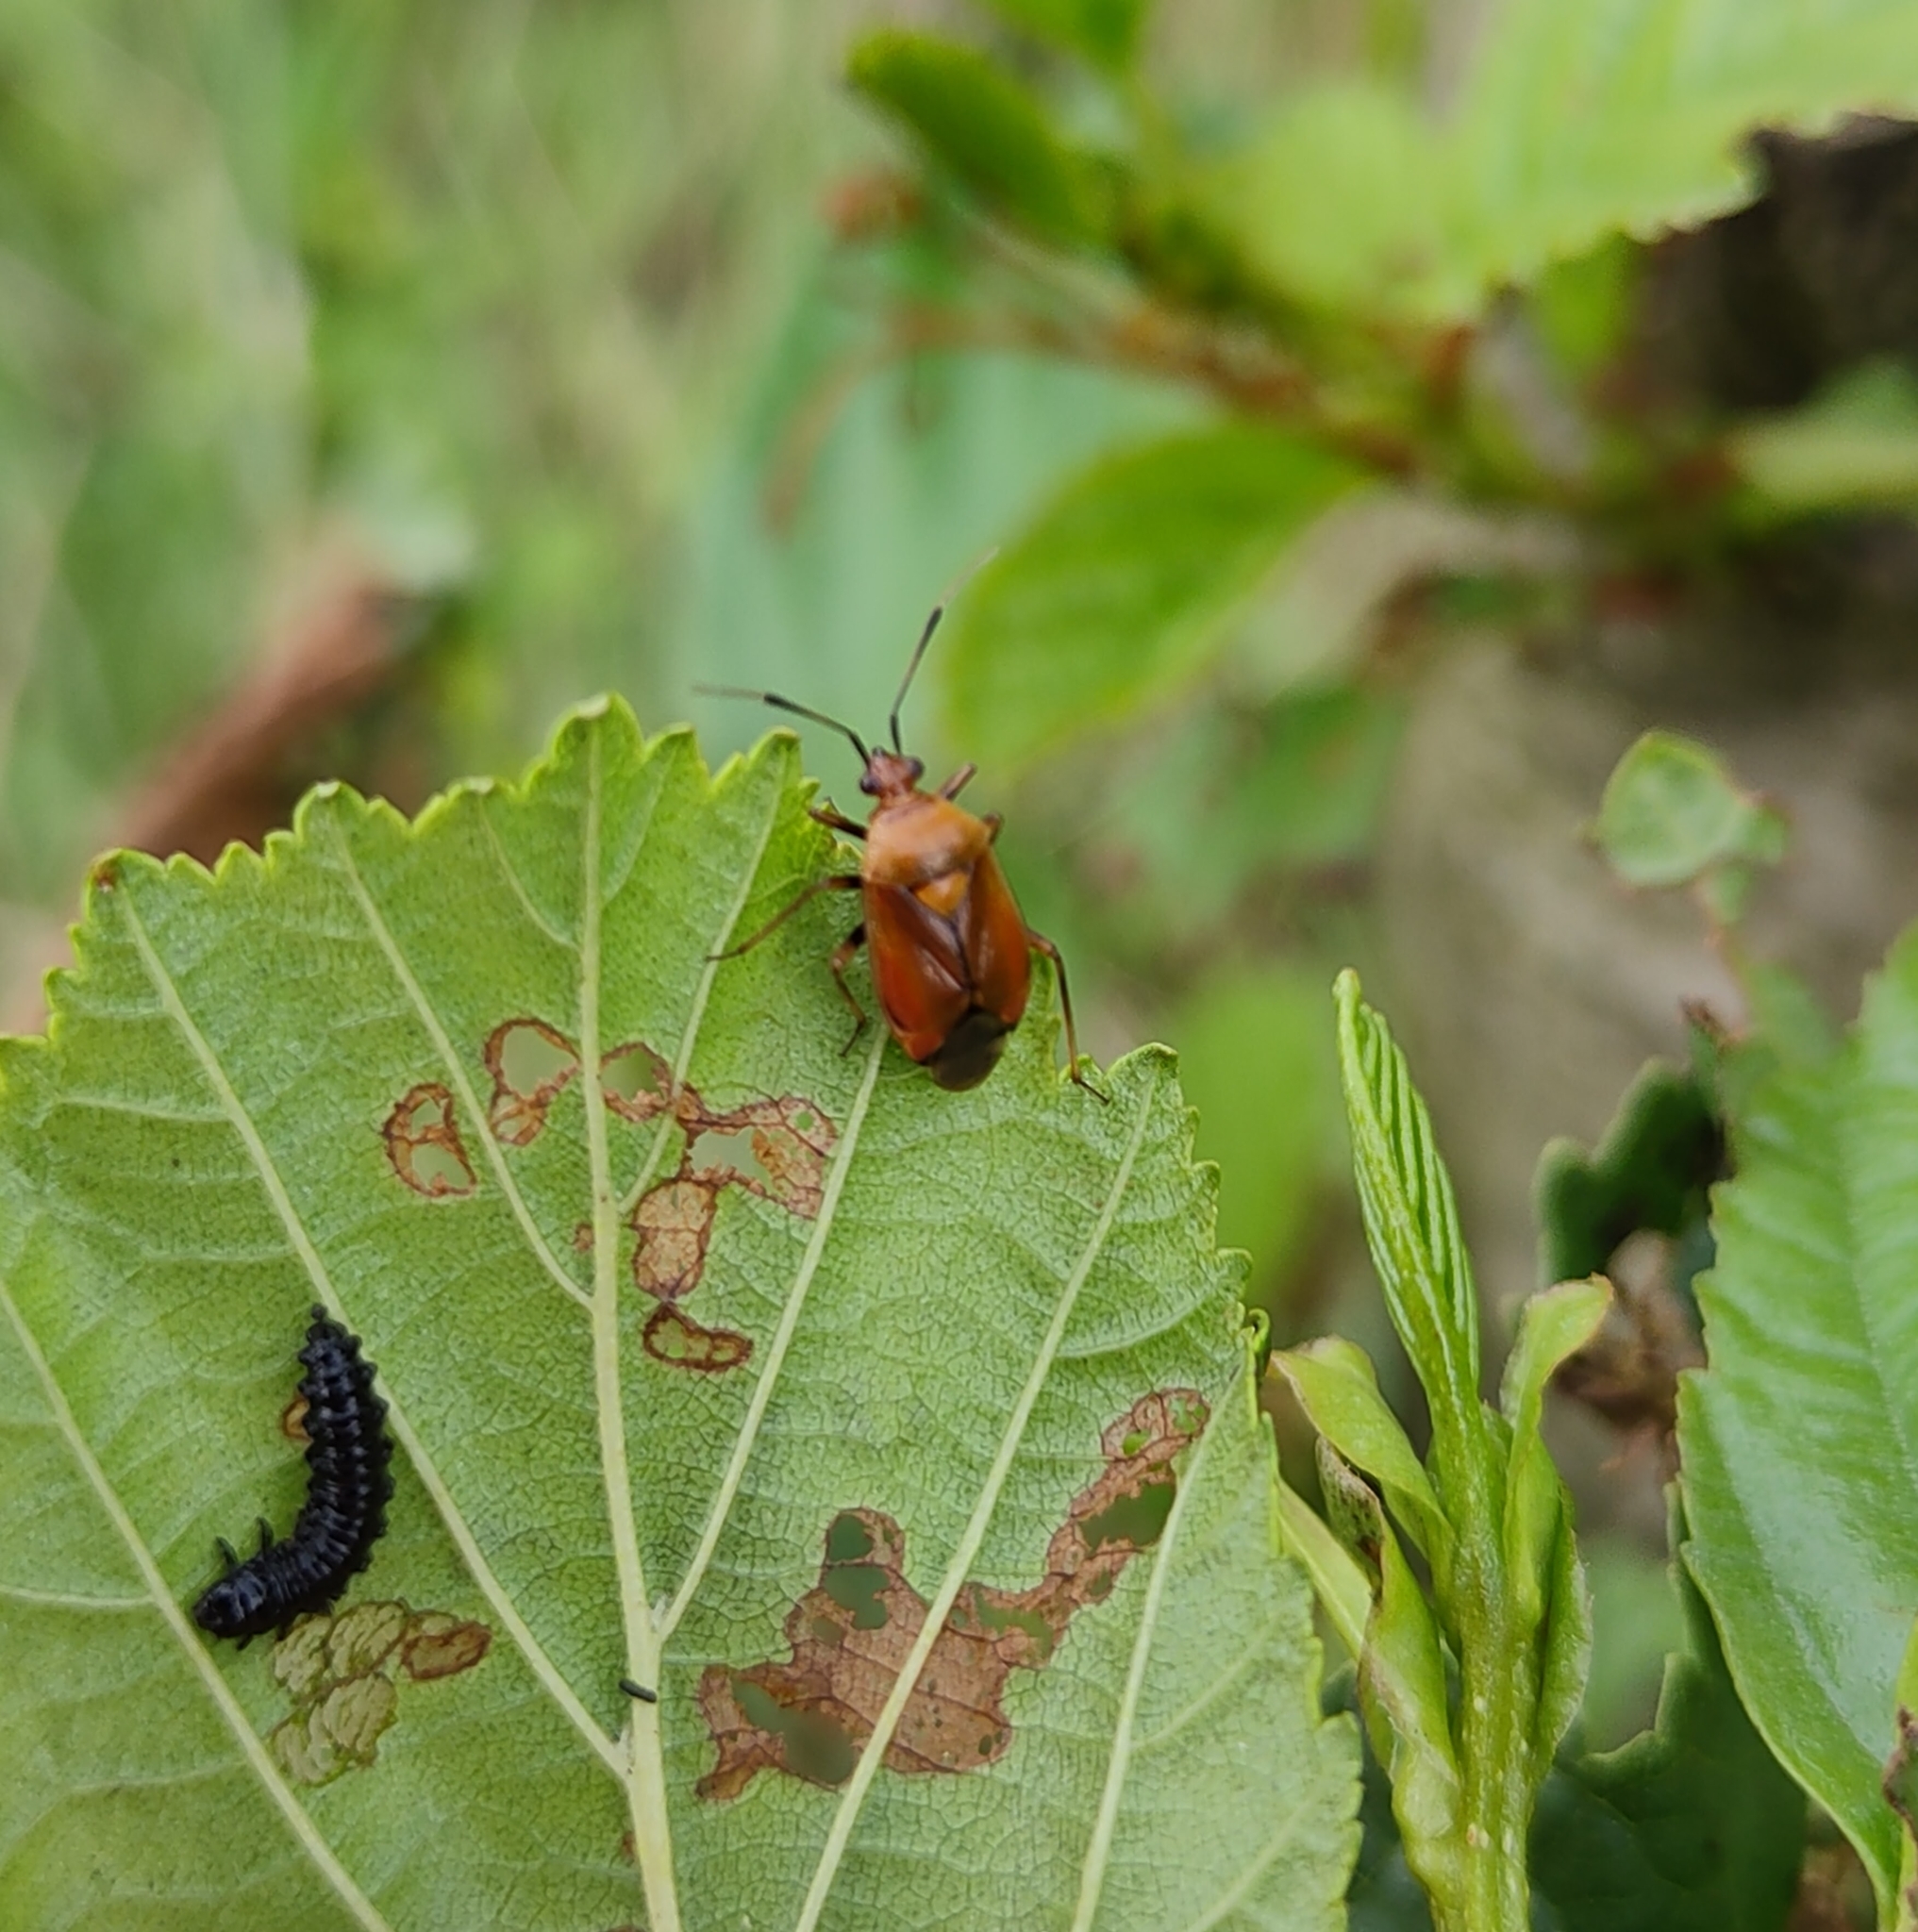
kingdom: Animalia
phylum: Arthropoda
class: Insecta
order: Hemiptera
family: Miridae
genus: Deraeocoris
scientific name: Deraeocoris ruber
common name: Plant bug
